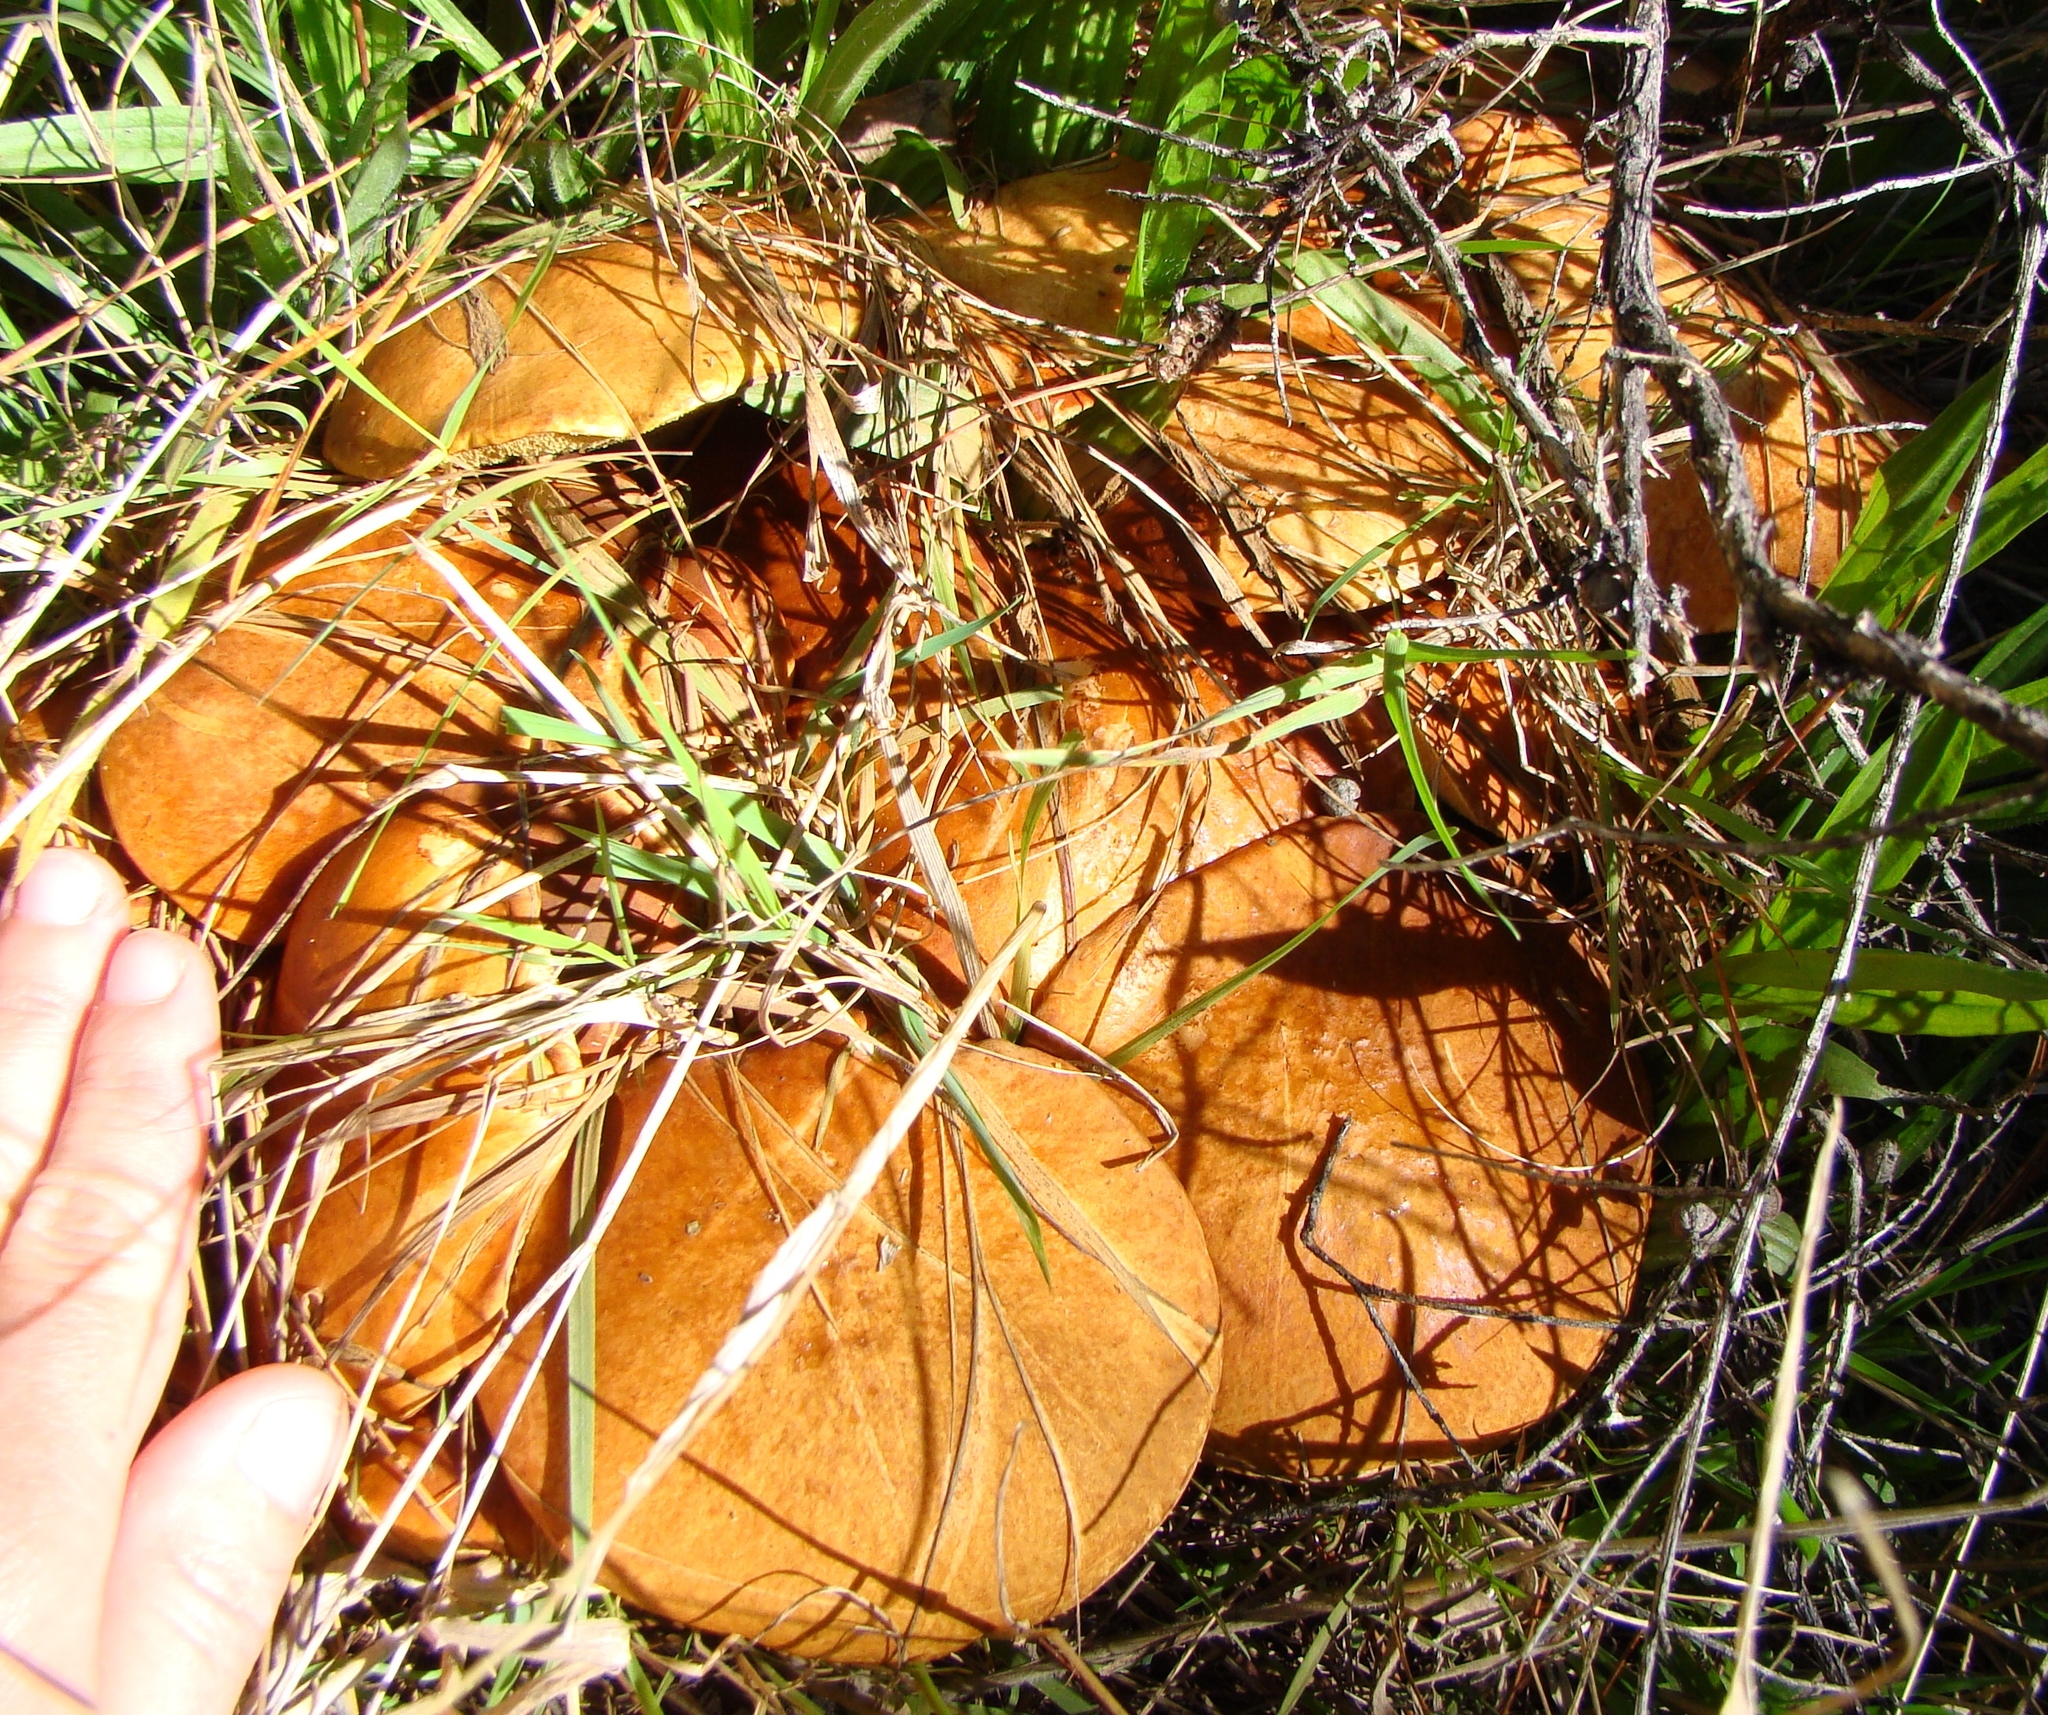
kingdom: Fungi
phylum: Basidiomycota
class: Agaricomycetes
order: Boletales
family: Suillaceae
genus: Suillus
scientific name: Suillus granulatus
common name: Weeping bolete
